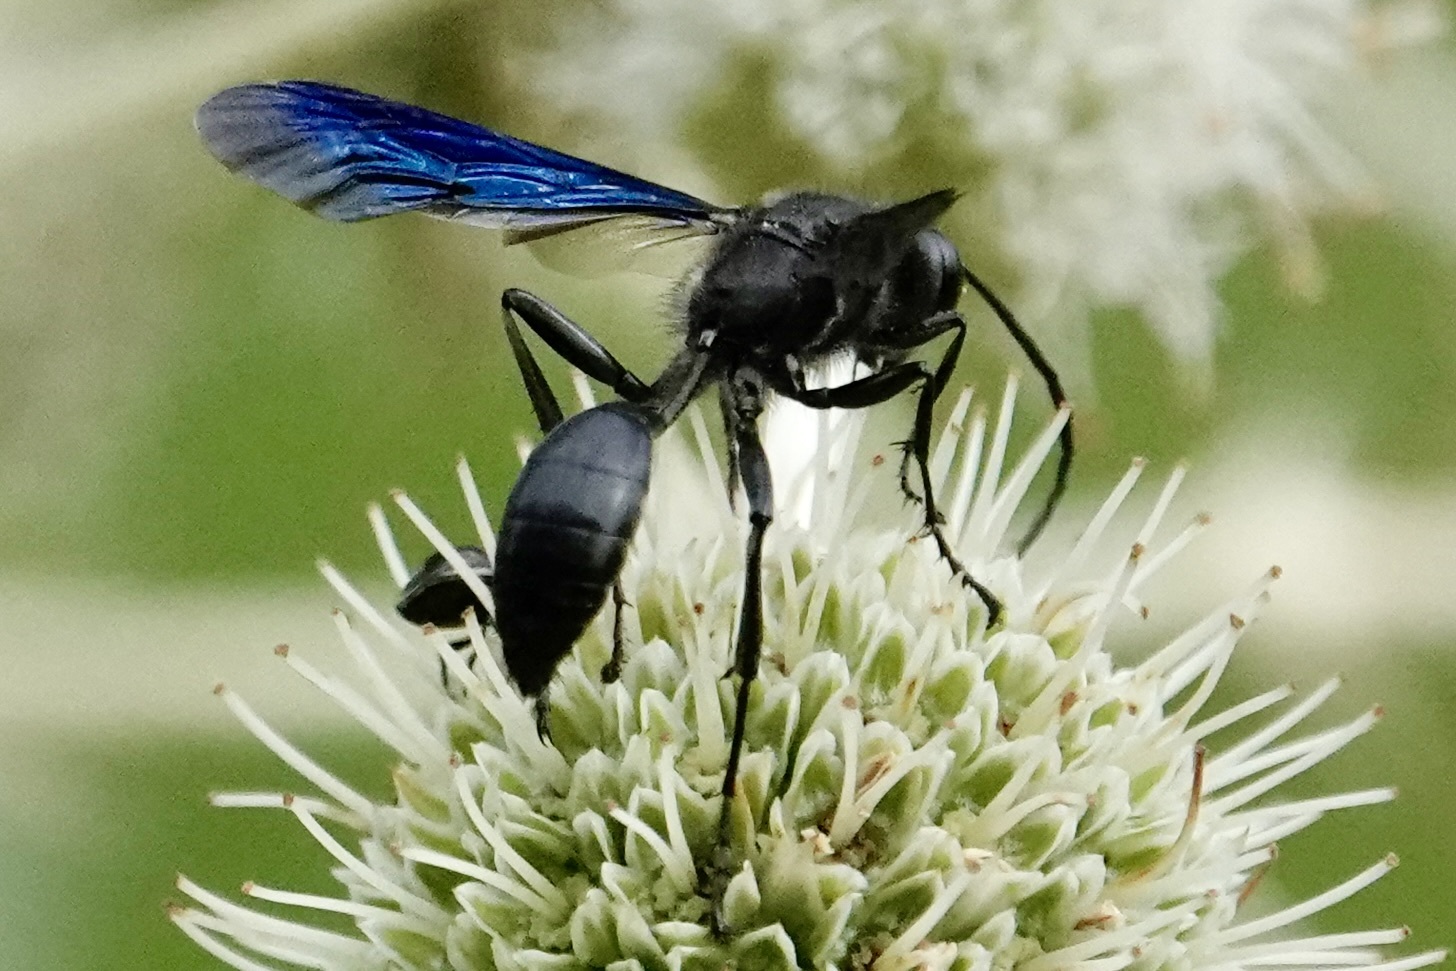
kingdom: Animalia
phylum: Arthropoda
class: Insecta
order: Hymenoptera
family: Sphecidae
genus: Isodontia
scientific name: Isodontia philadelphica
